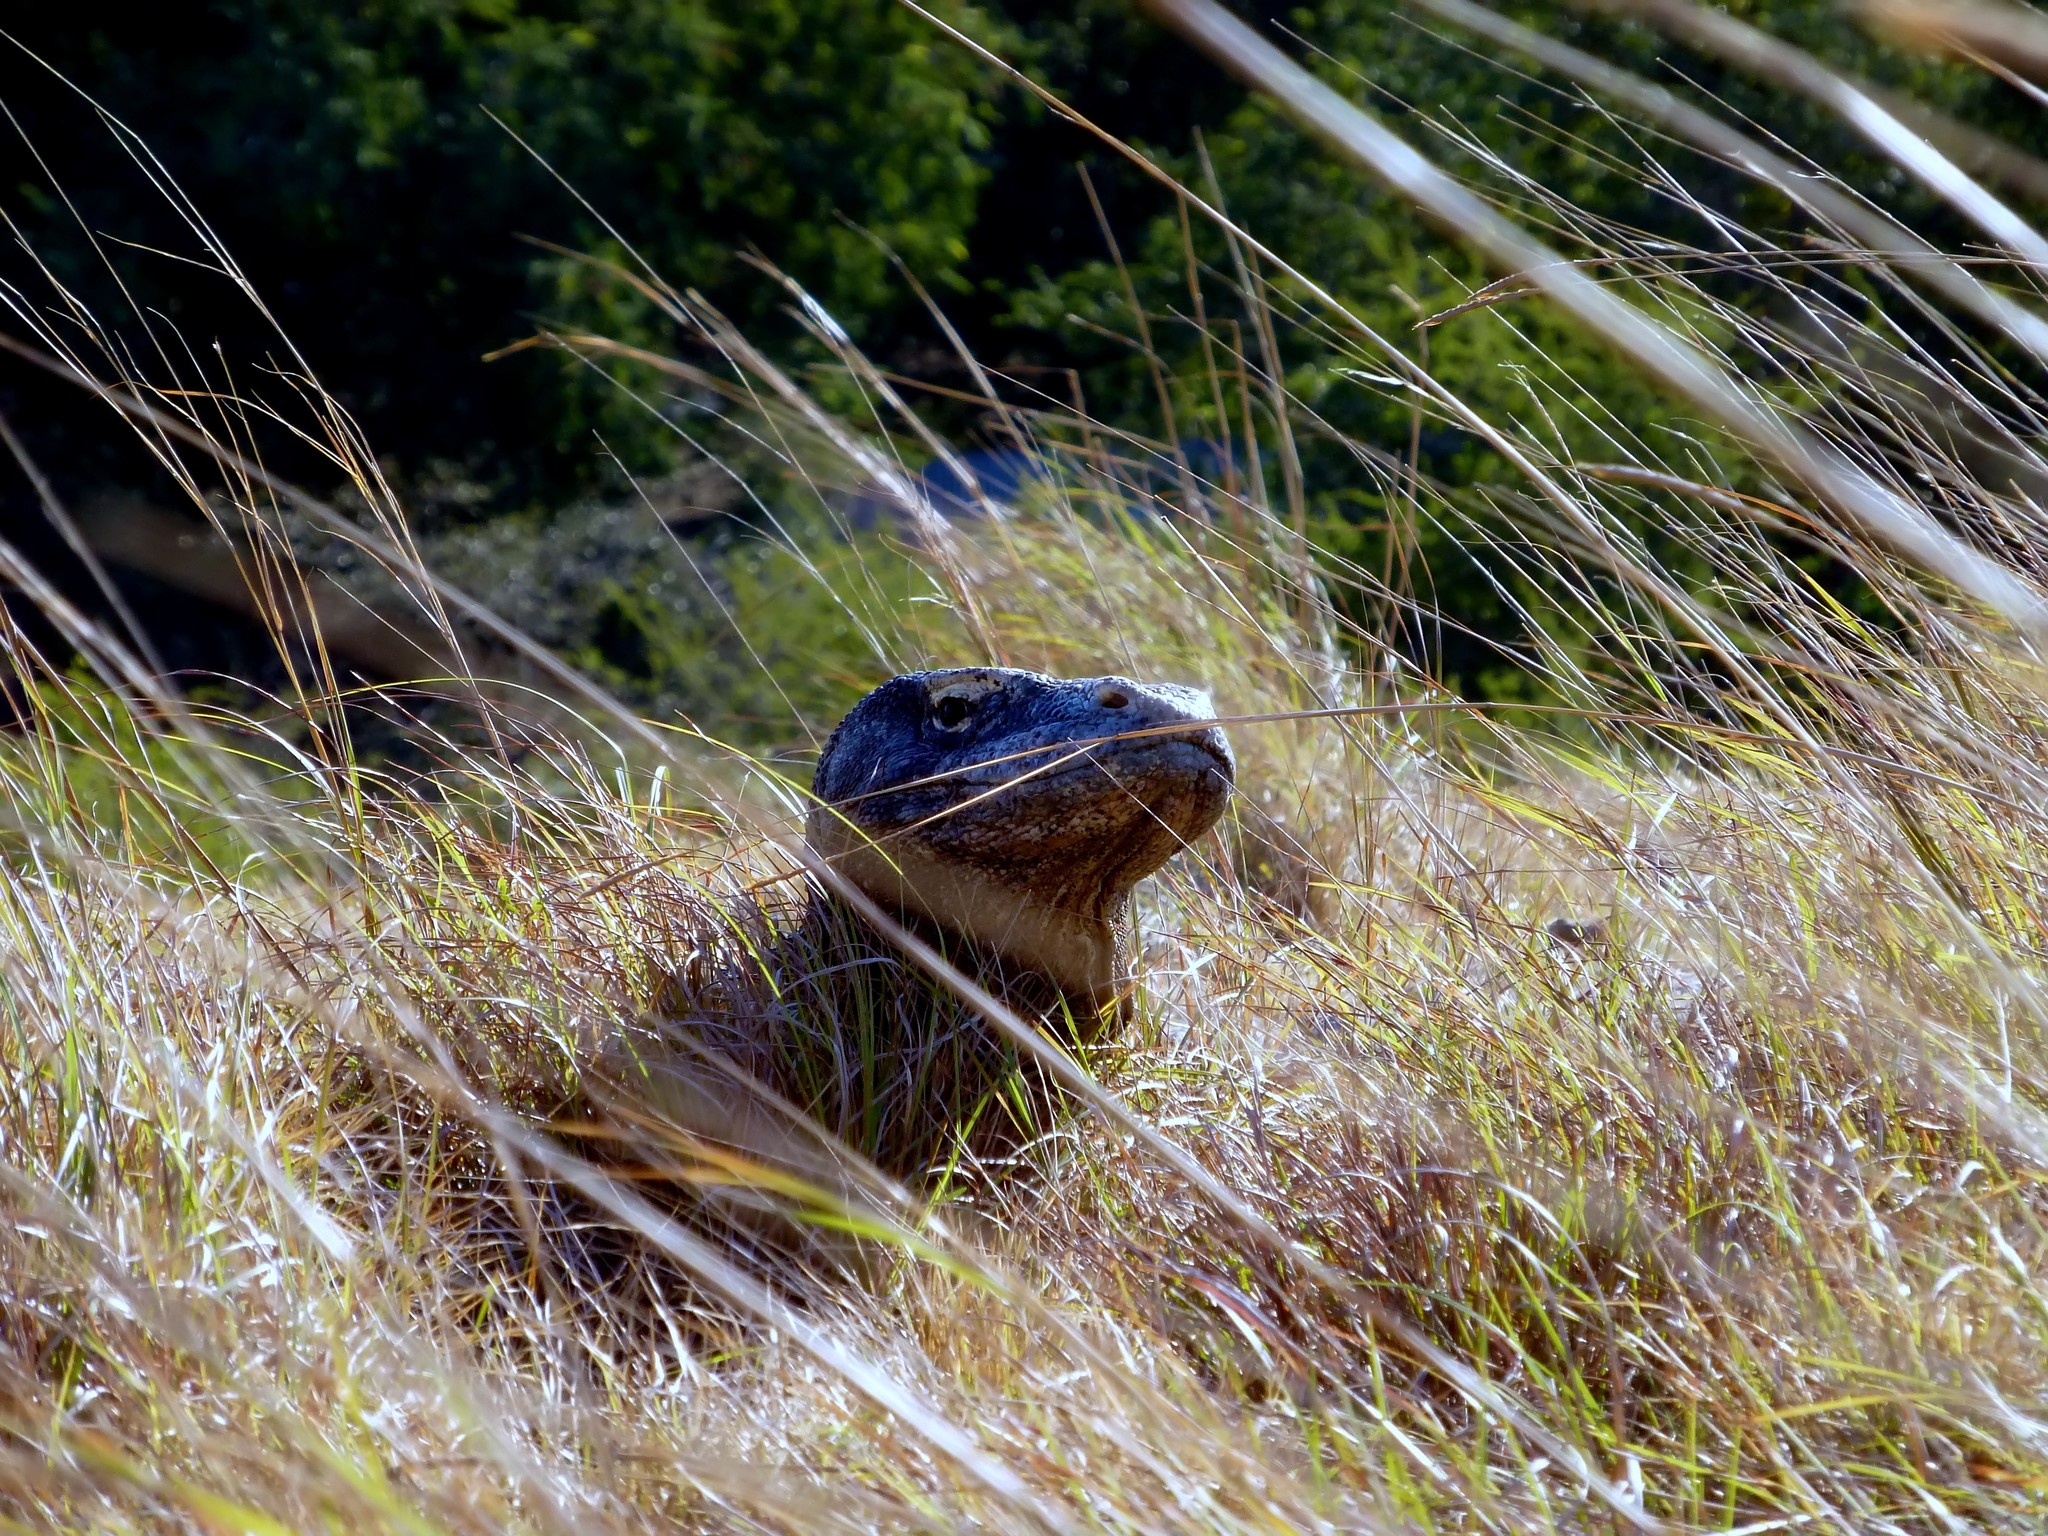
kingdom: Animalia
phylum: Chordata
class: Squamata
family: Varanidae
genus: Varanus
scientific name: Varanus komodoensis
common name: Komodo dragon
